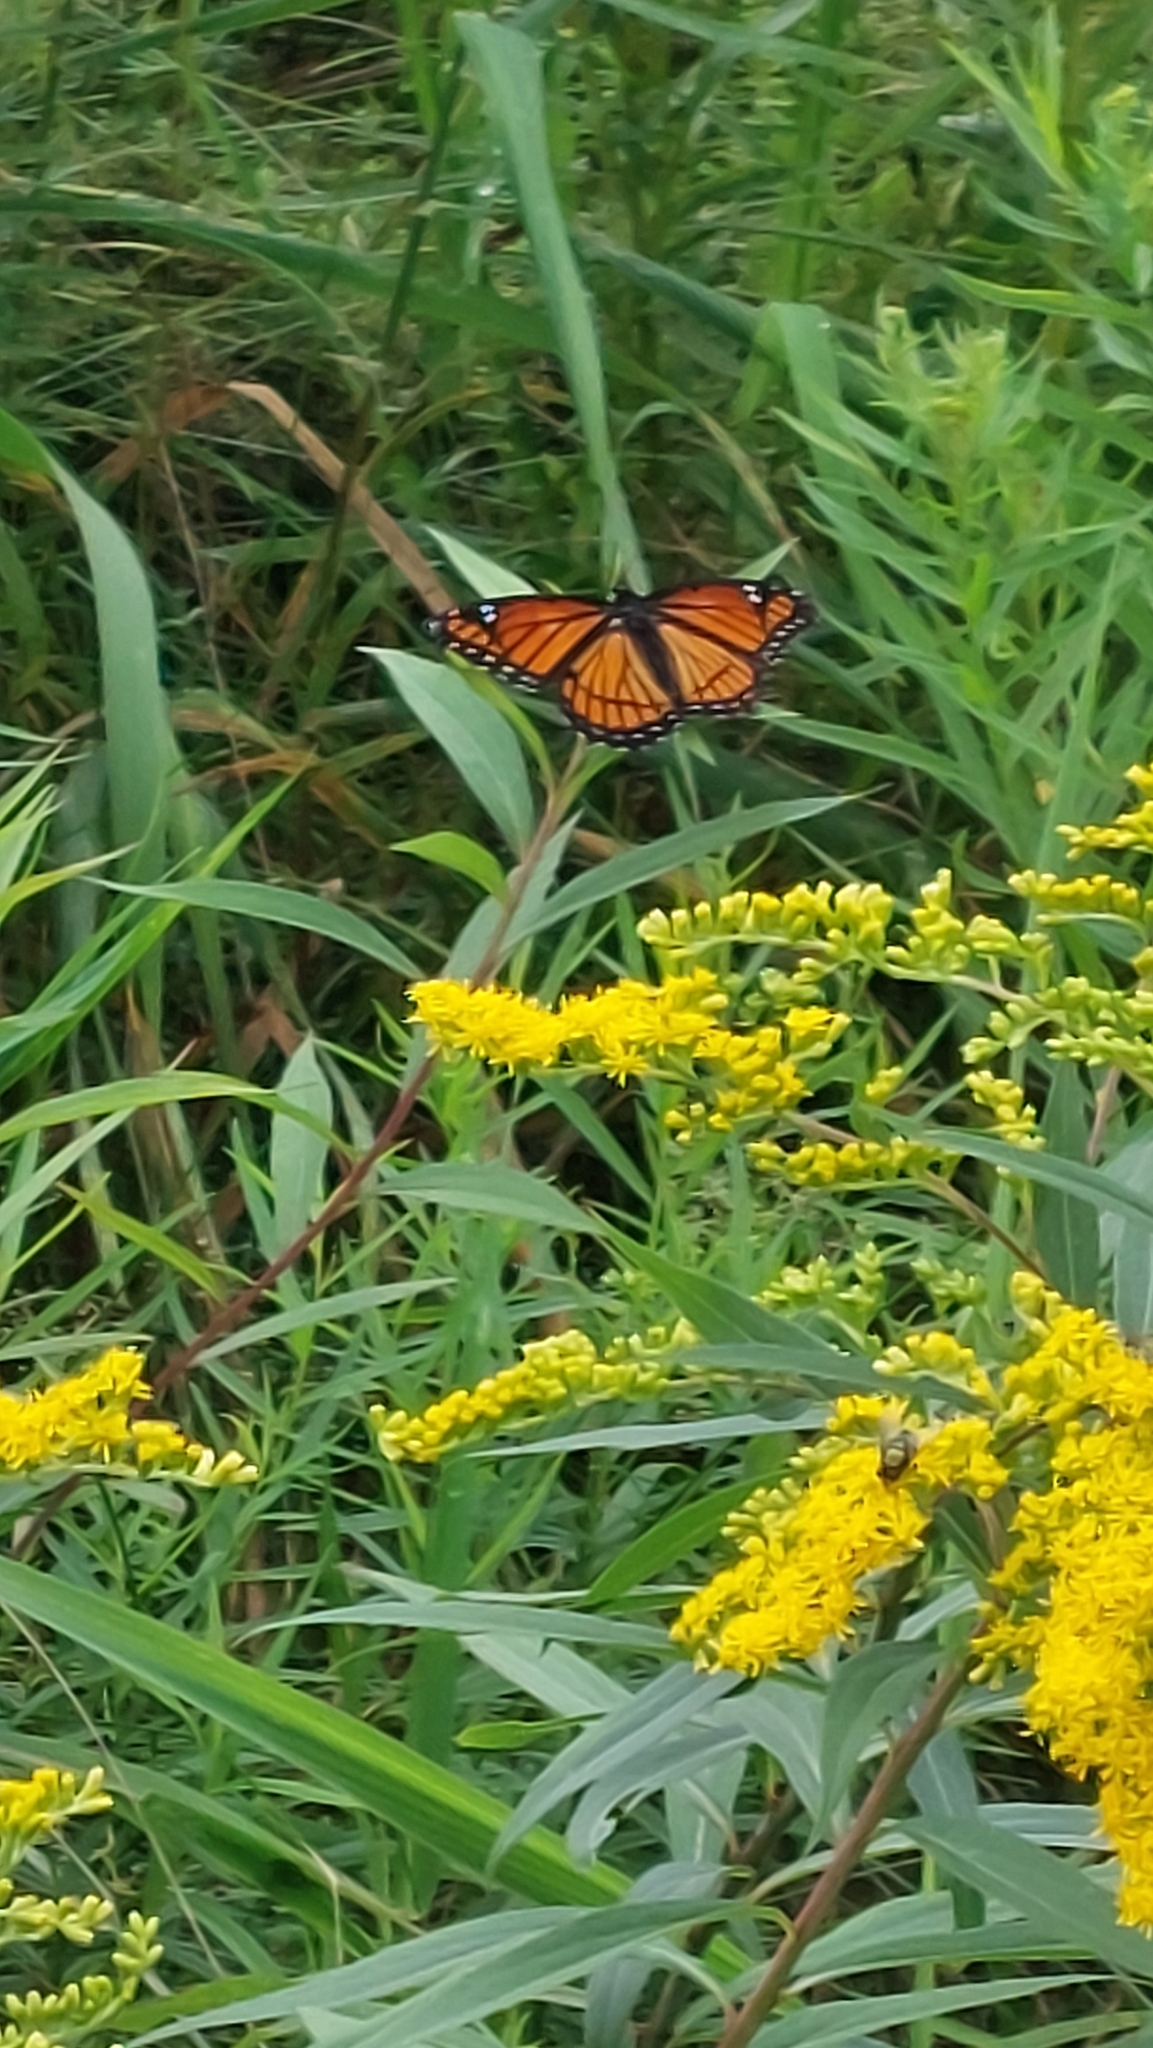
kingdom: Animalia
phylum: Arthropoda
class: Insecta
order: Lepidoptera
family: Nymphalidae
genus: Limenitis
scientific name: Limenitis archippus
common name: Viceroy
